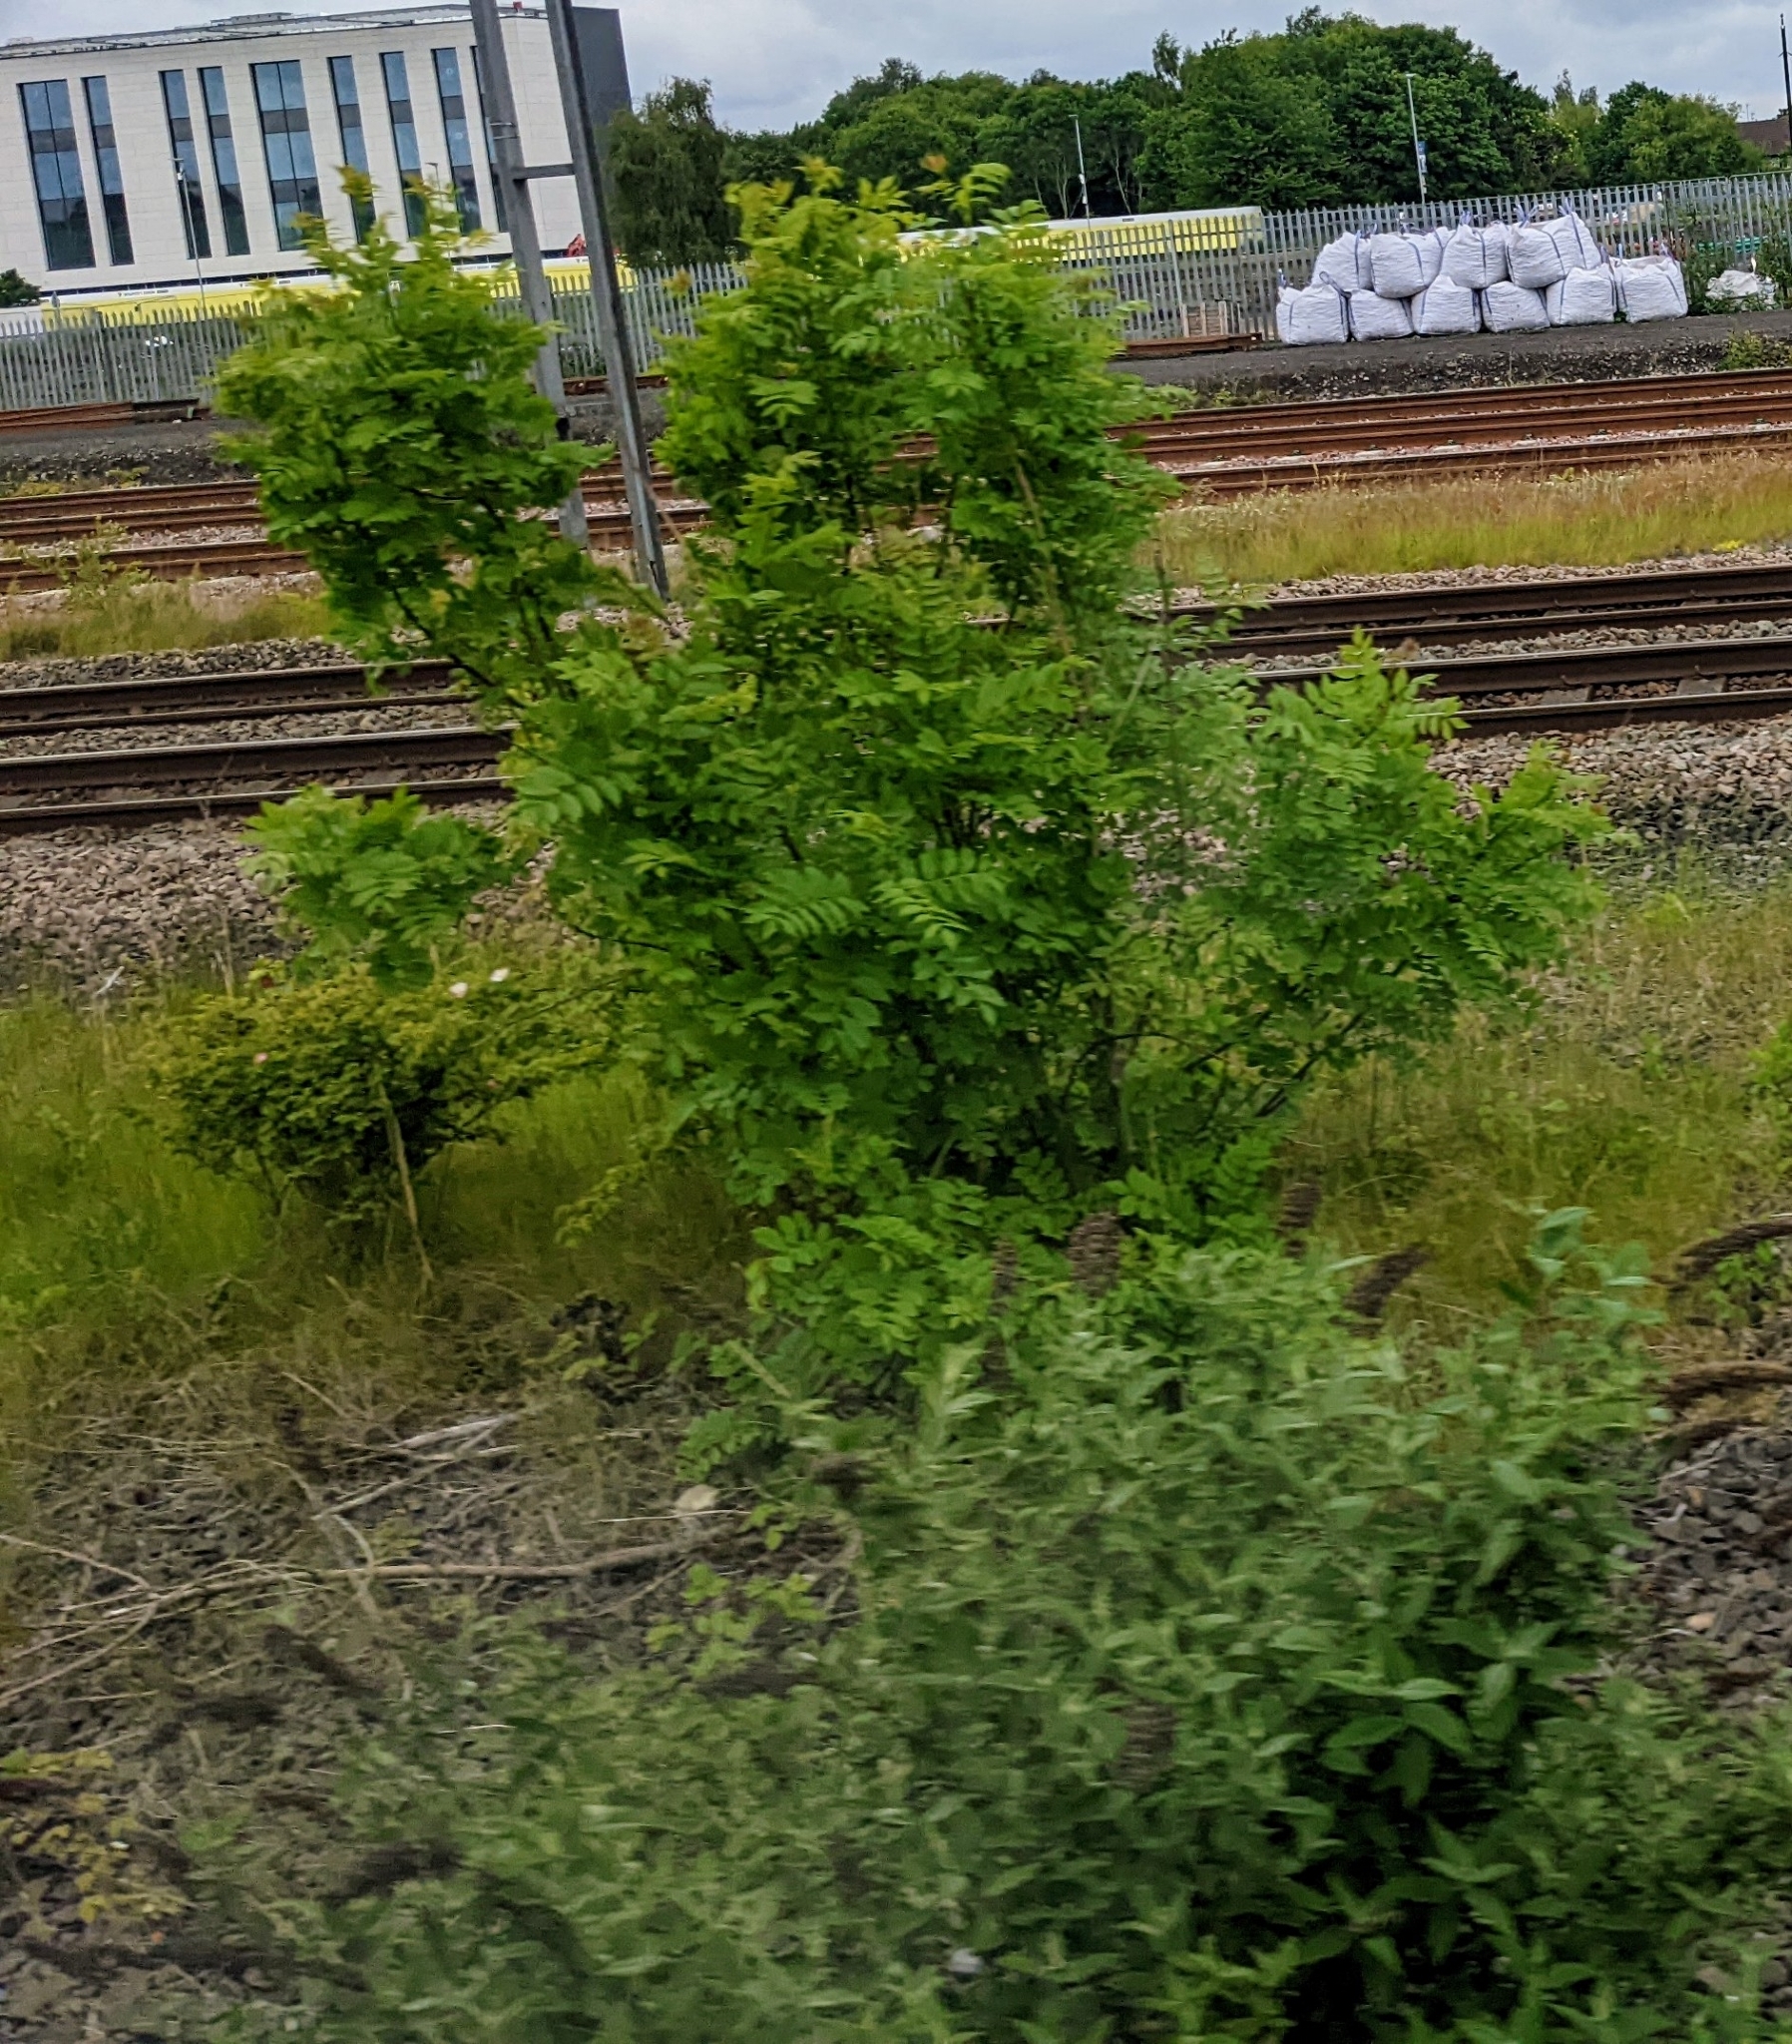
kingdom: Plantae
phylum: Tracheophyta
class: Magnoliopsida
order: Lamiales
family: Oleaceae
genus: Fraxinus
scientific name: Fraxinus excelsior
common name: European ash
